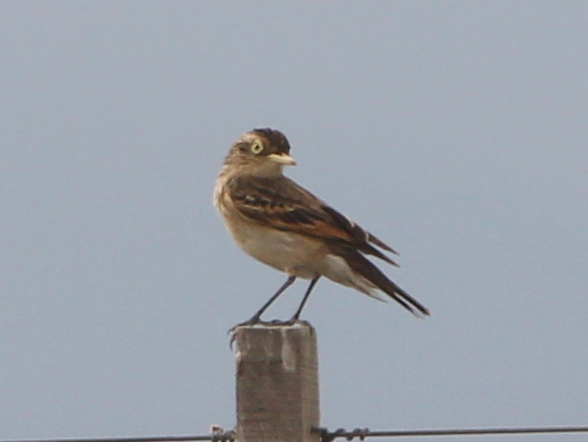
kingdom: Animalia
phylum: Chordata
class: Aves
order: Passeriformes
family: Tyrannidae
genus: Hymenops
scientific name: Hymenops perspicillatus
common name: Spectacled tyrant
